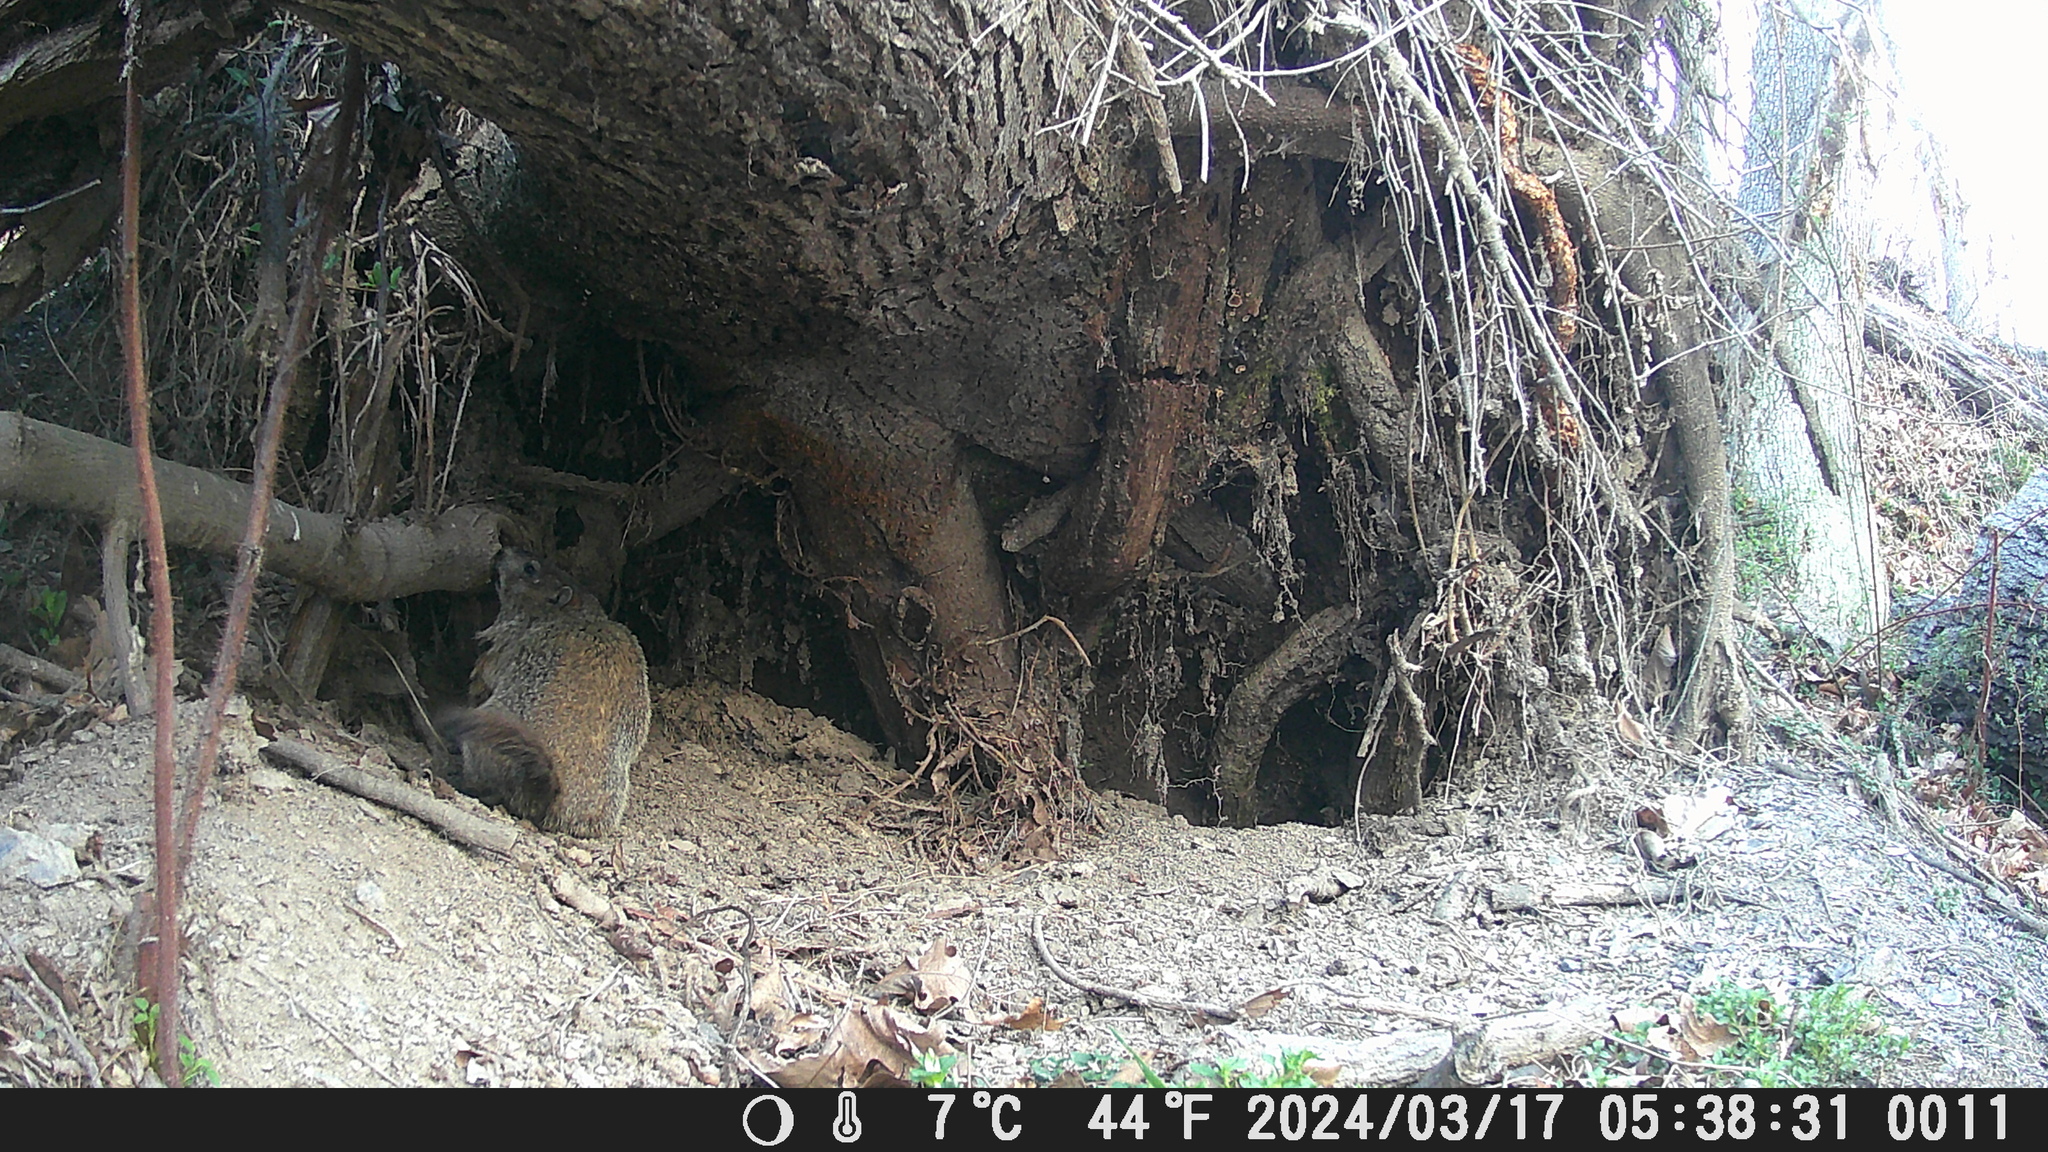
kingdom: Animalia
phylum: Chordata
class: Mammalia
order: Rodentia
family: Sciuridae
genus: Marmota
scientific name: Marmota monax
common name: Groundhog
